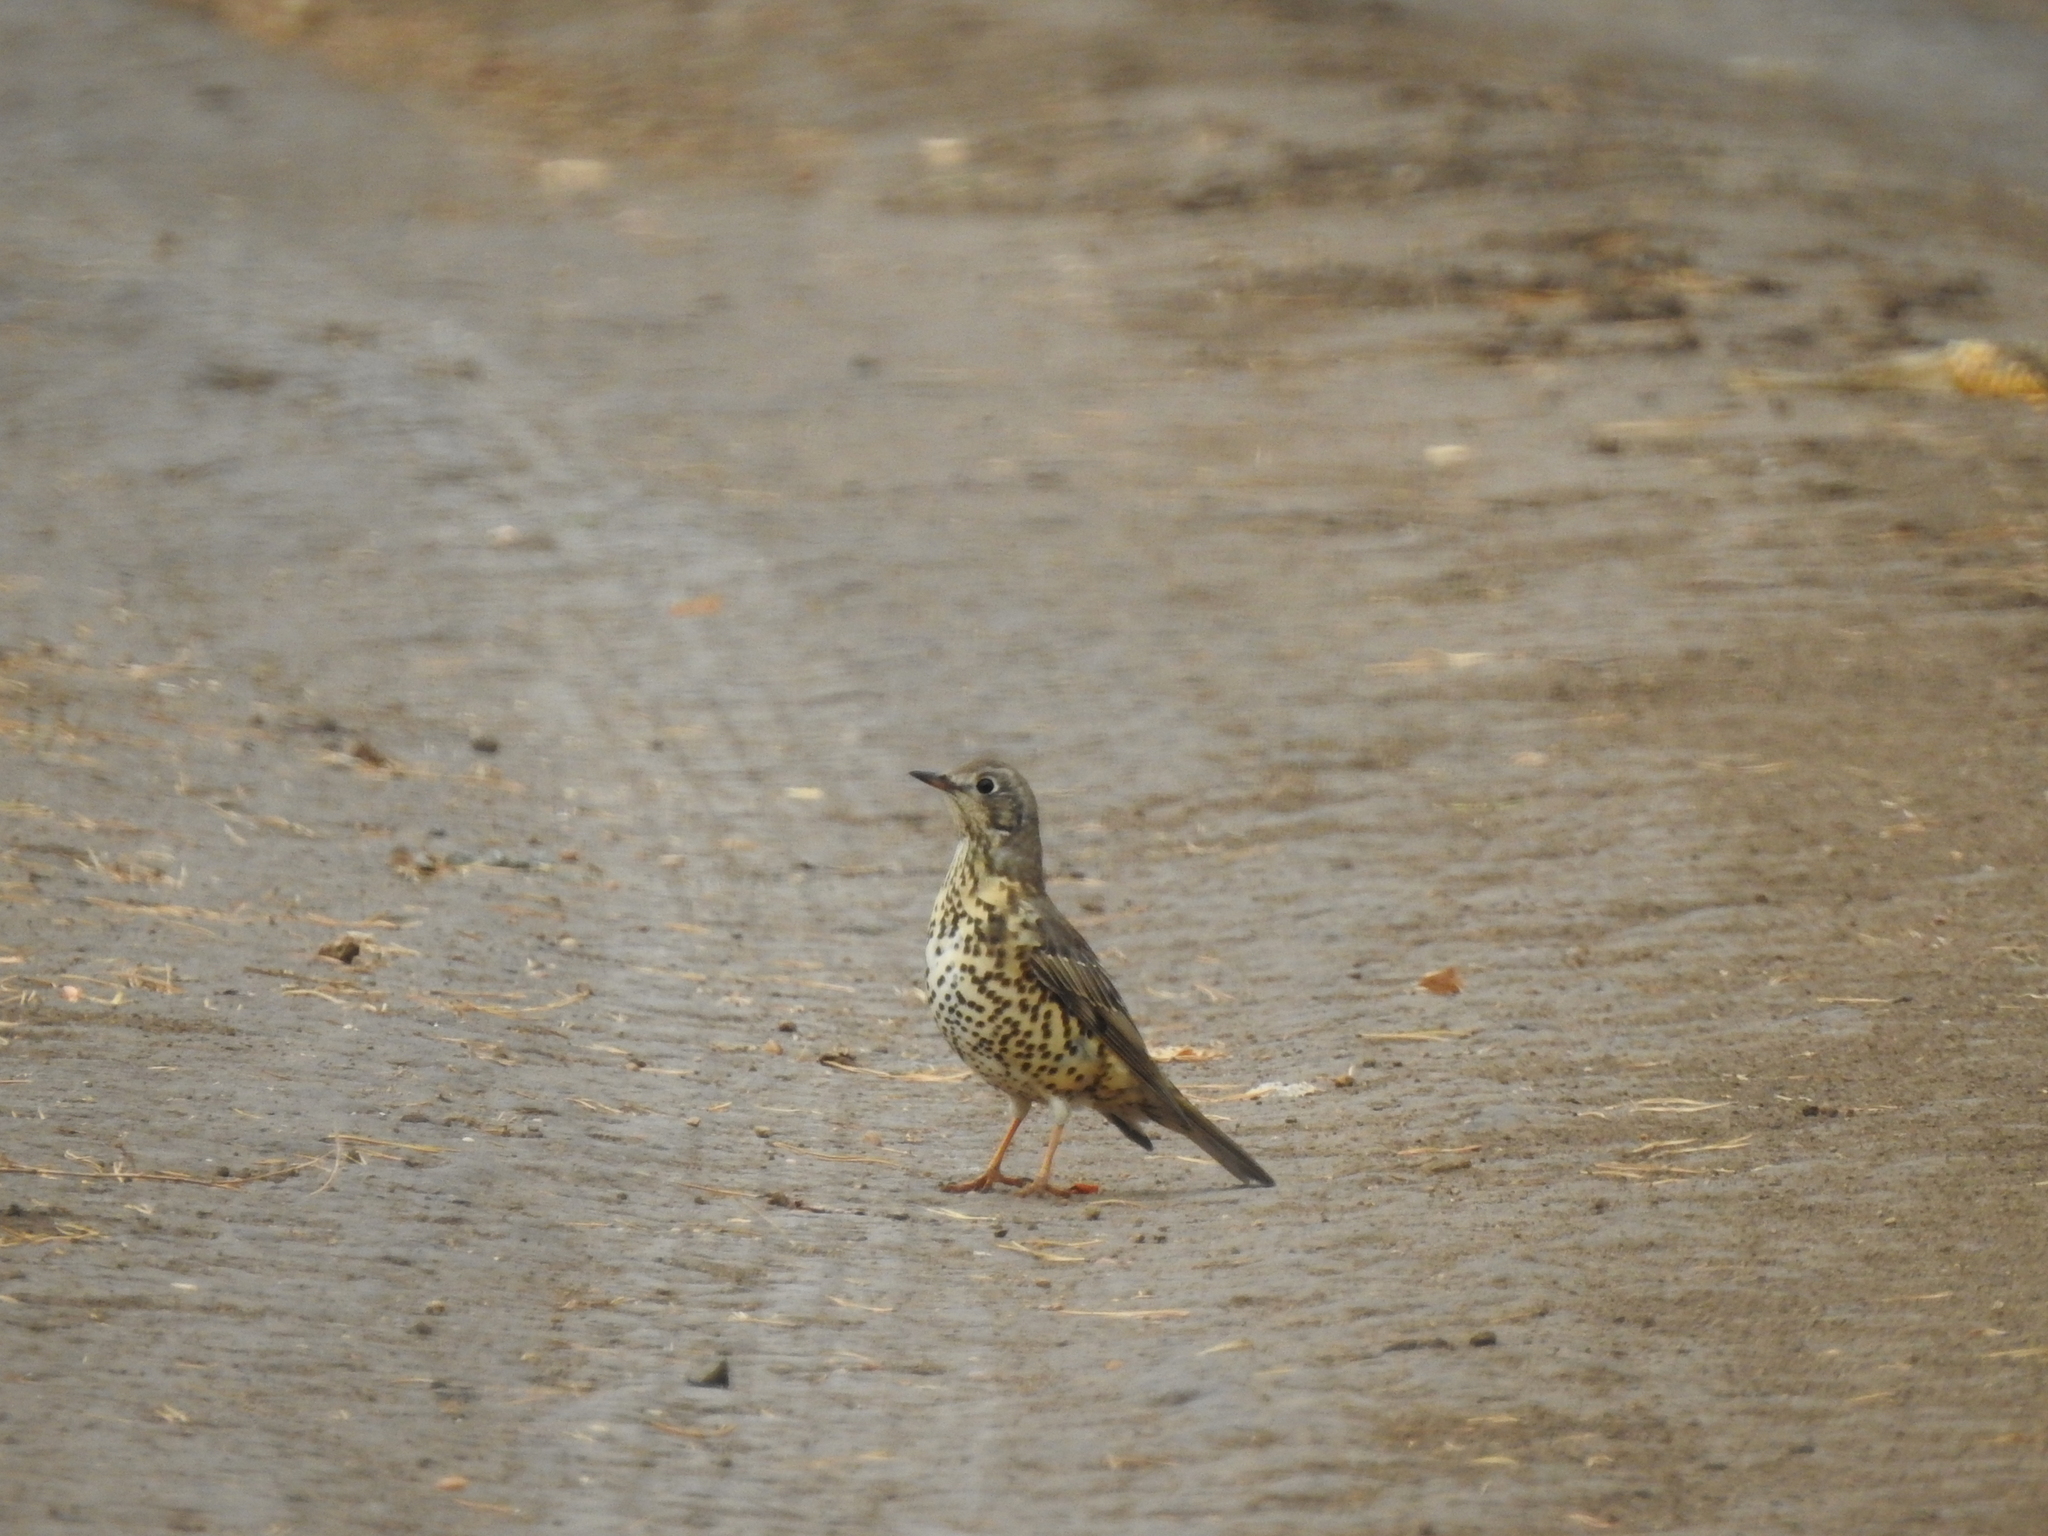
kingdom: Animalia
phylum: Chordata
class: Aves
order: Passeriformes
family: Turdidae
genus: Turdus
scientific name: Turdus viscivorus
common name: Mistle thrush
